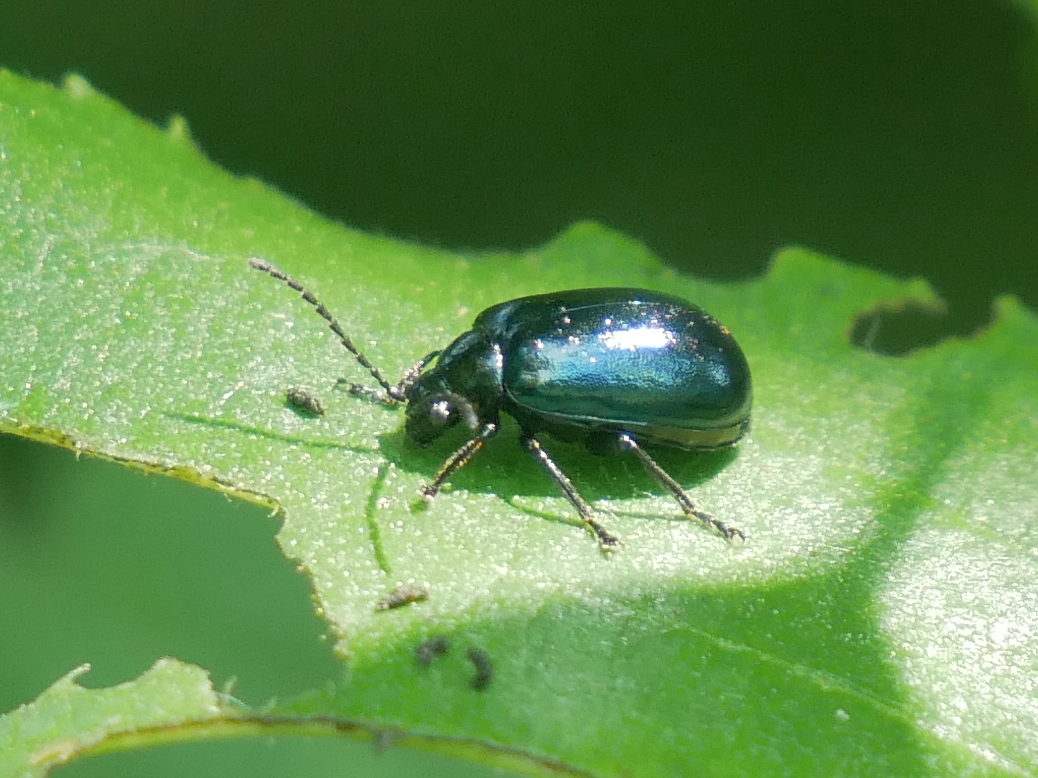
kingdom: Animalia
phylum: Arthropoda
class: Insecta
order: Coleoptera
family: Chrysomelidae
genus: Agelastica
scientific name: Agelastica alni
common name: Alder leaf beetle
